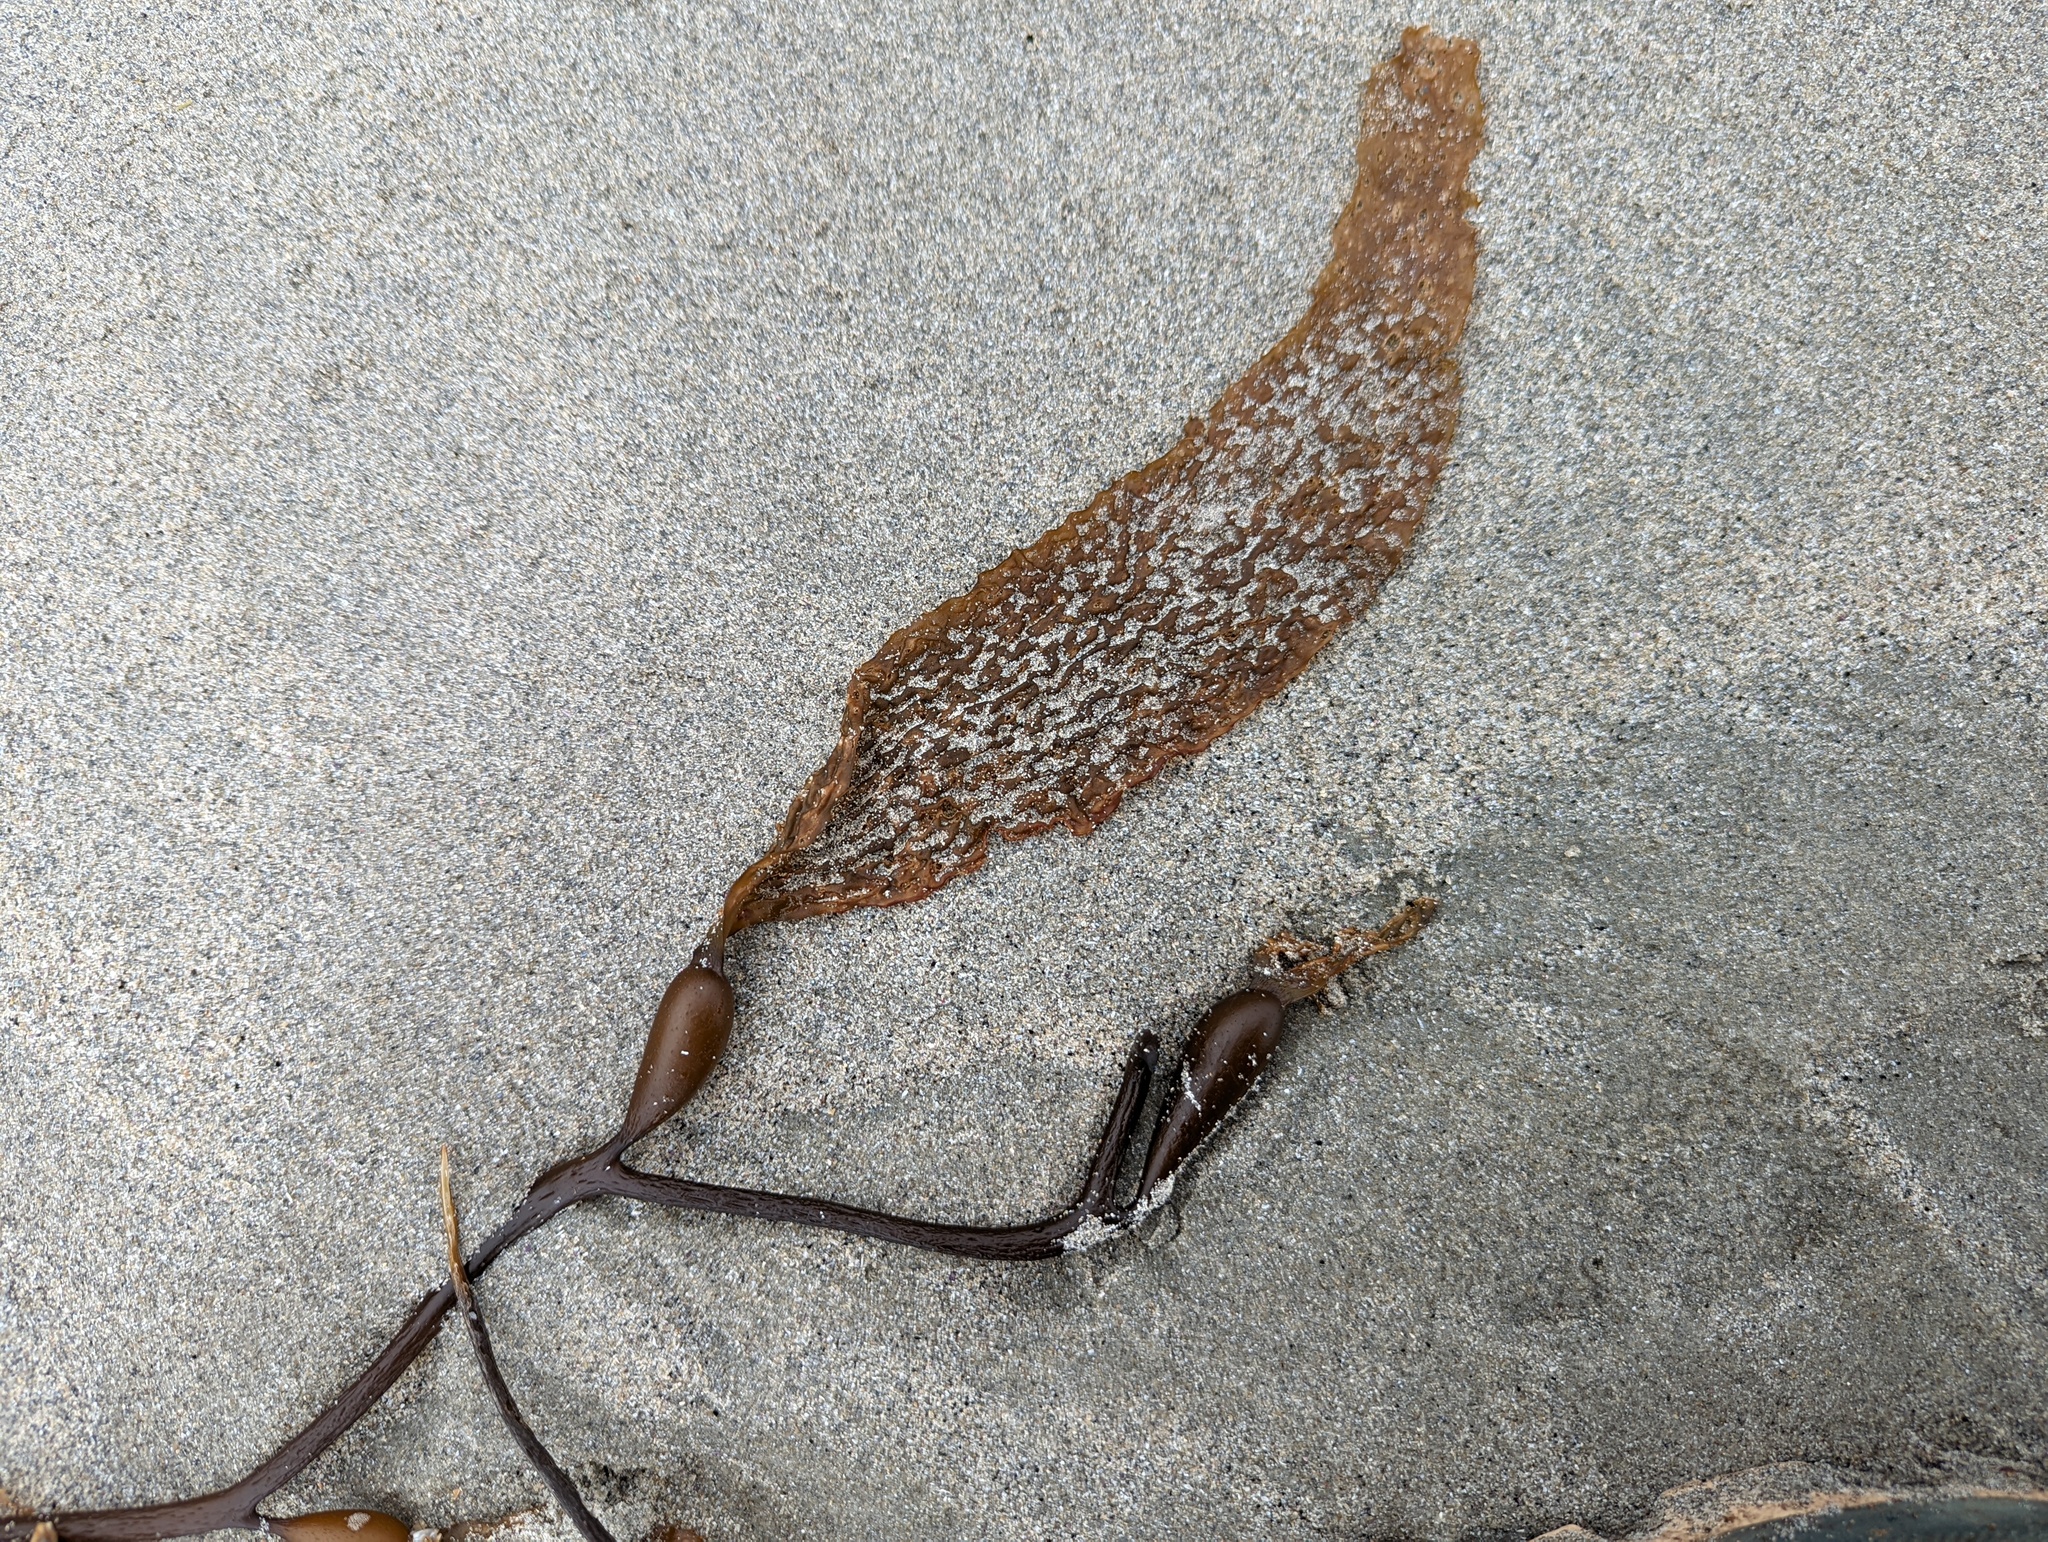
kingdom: Chromista
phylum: Ochrophyta
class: Phaeophyceae
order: Laminariales
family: Laminariaceae
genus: Macrocystis
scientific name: Macrocystis pyrifera
